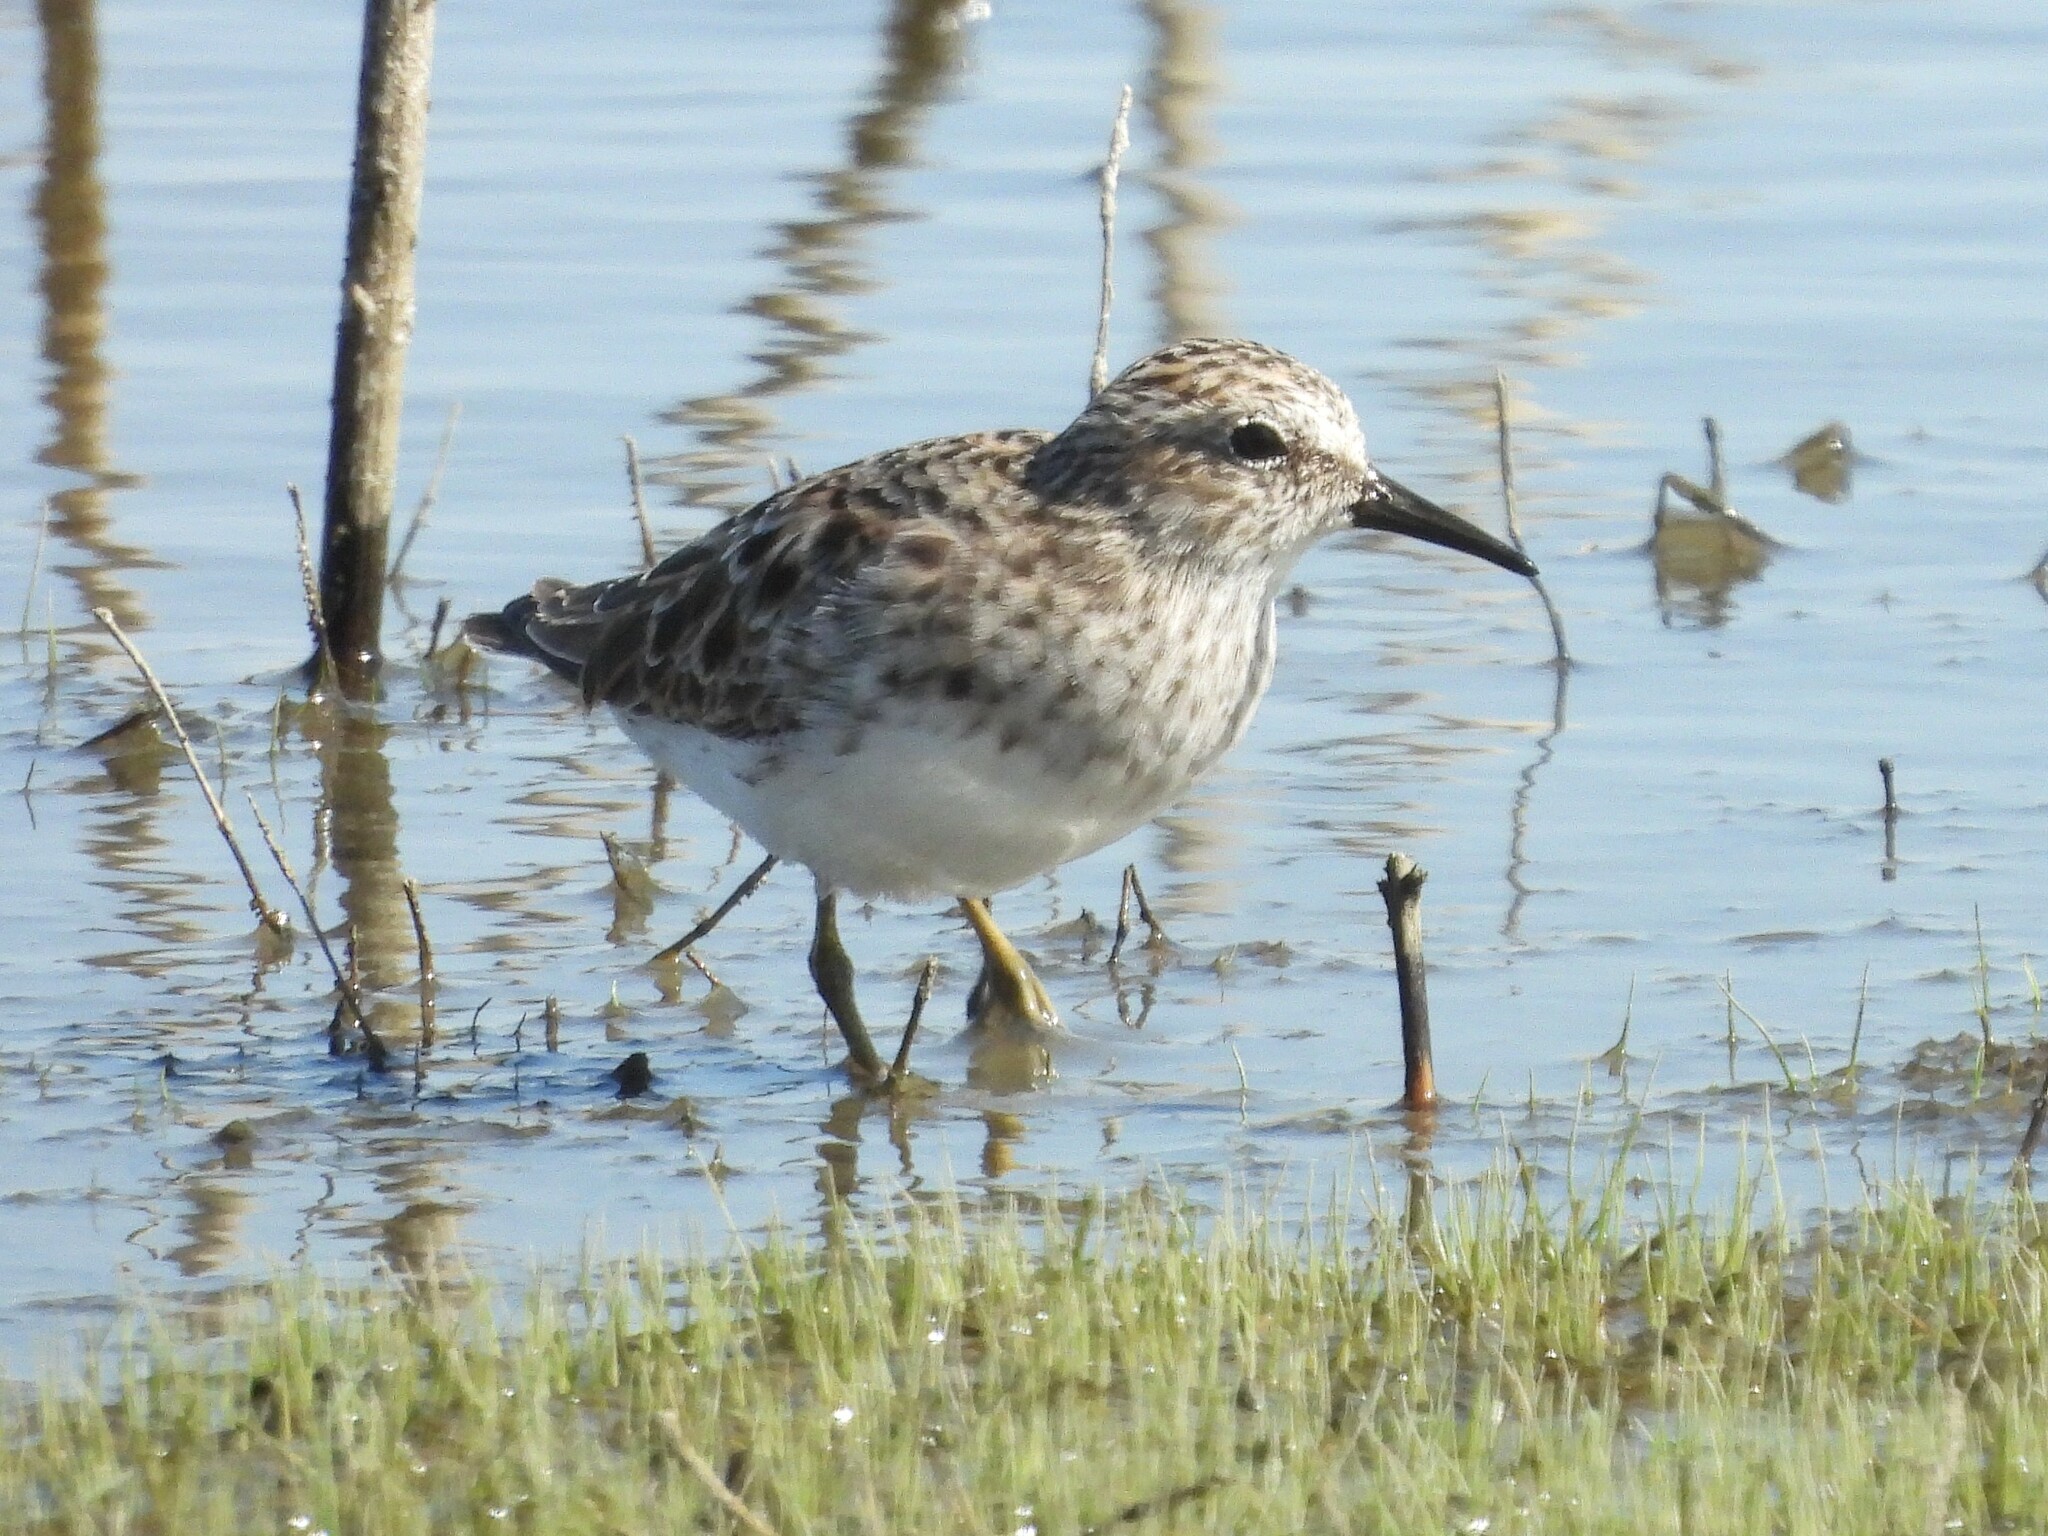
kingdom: Animalia
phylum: Chordata
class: Aves
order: Charadriiformes
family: Scolopacidae
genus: Calidris
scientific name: Calidris minutilla
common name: Least sandpiper
